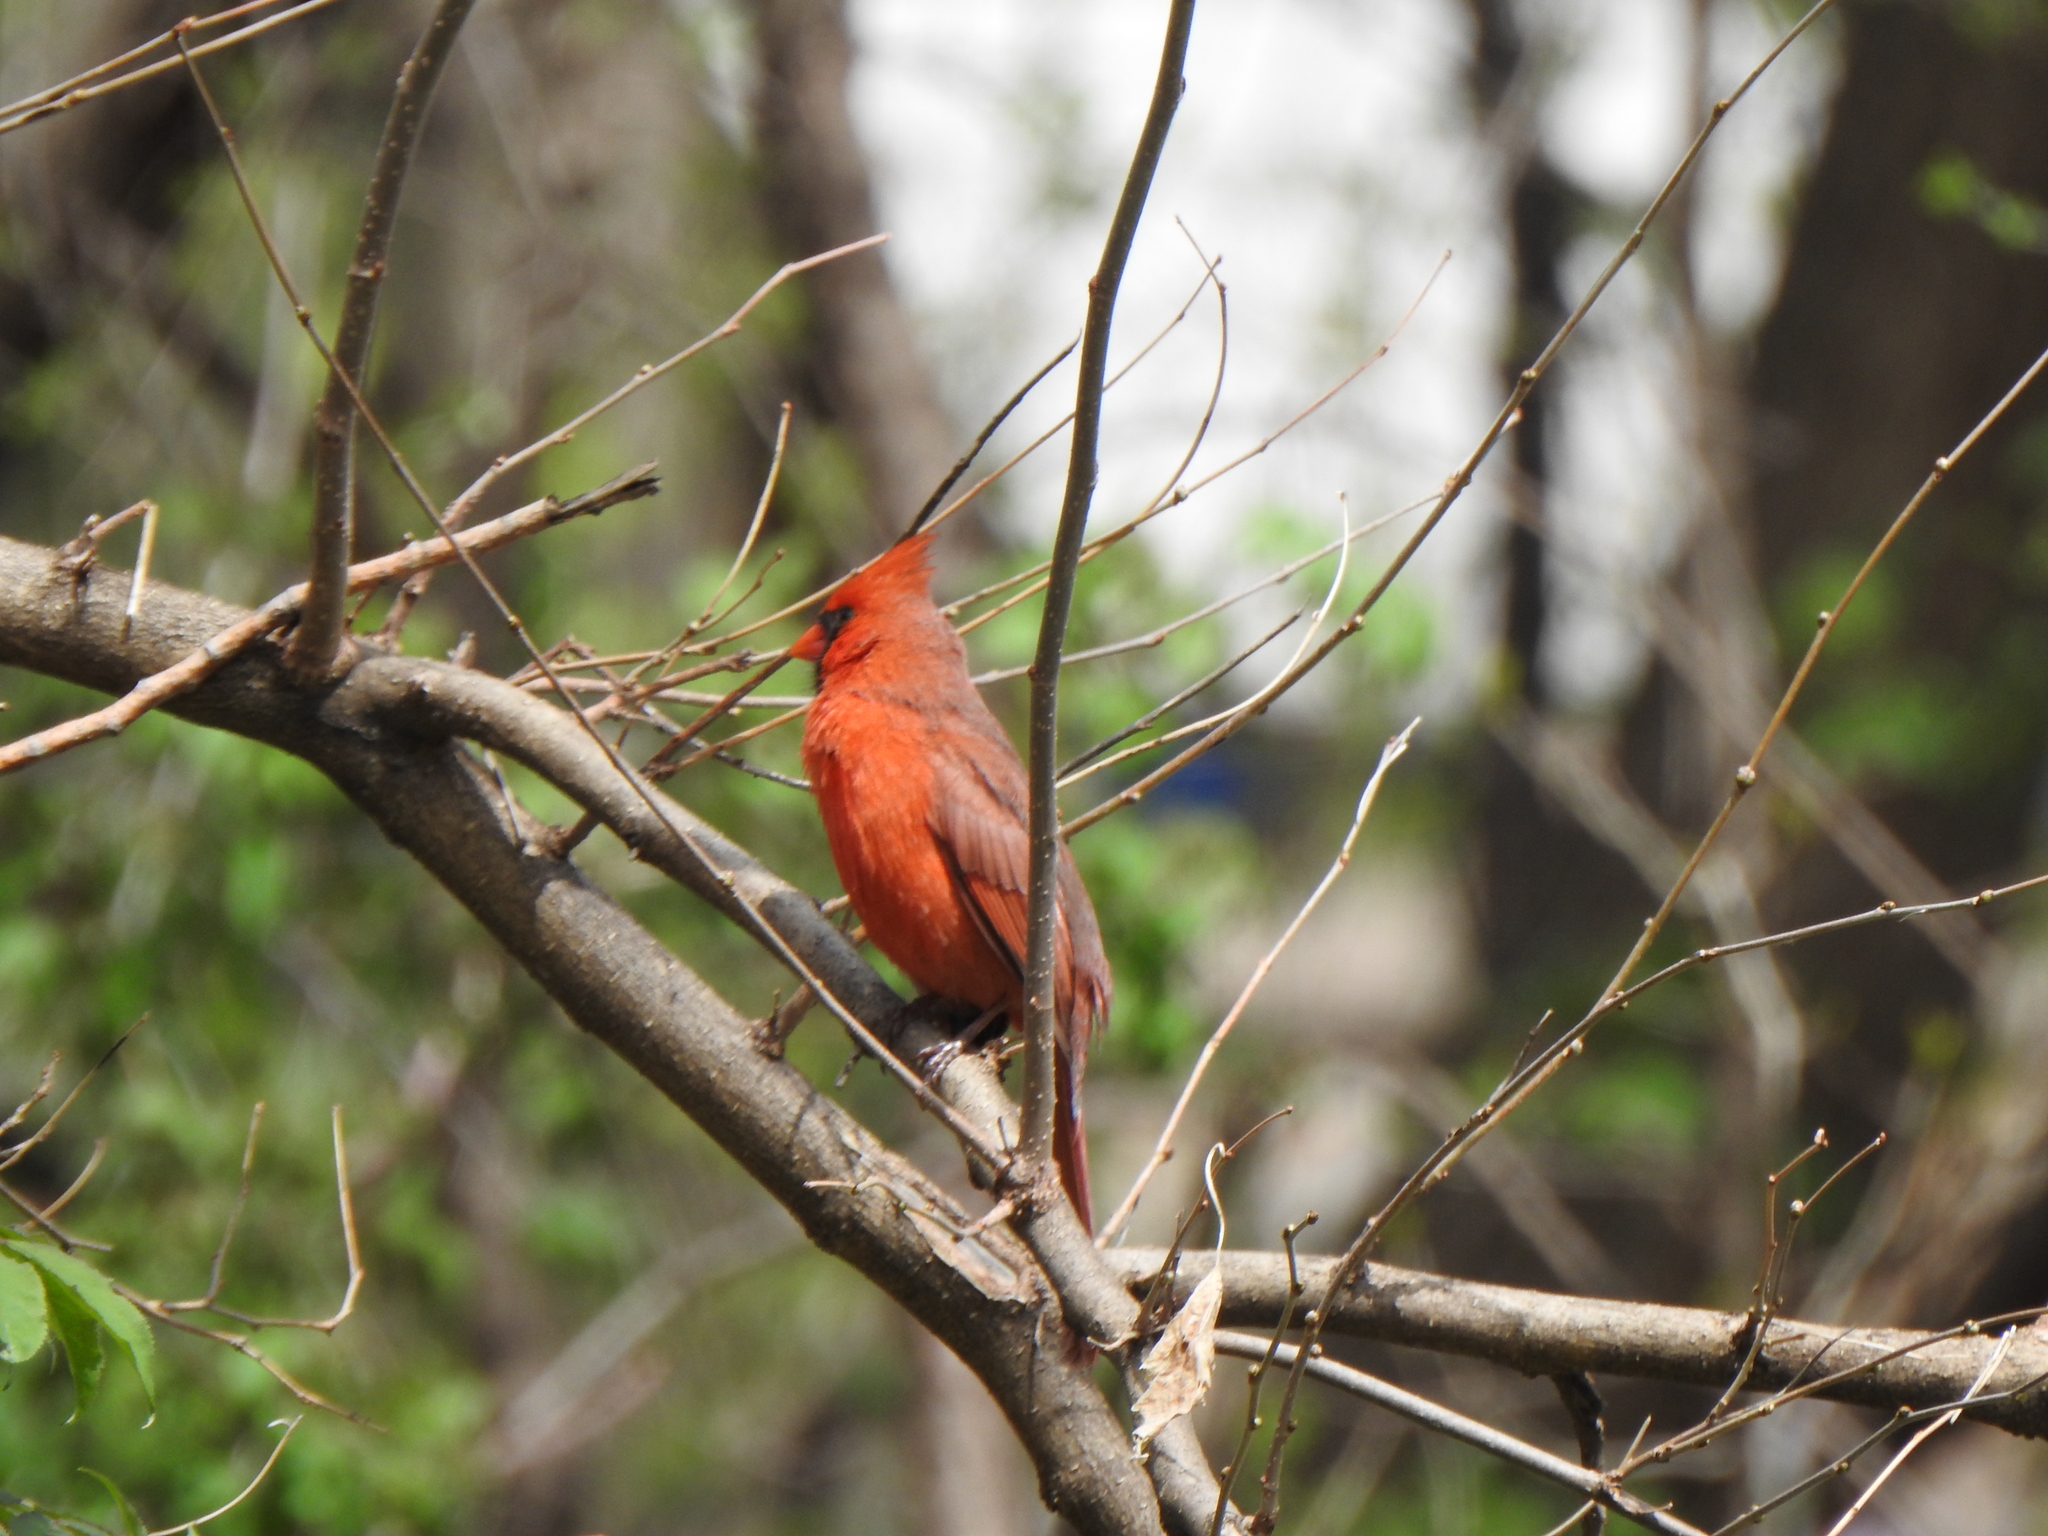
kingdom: Animalia
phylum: Chordata
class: Aves
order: Passeriformes
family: Cardinalidae
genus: Cardinalis
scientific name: Cardinalis cardinalis
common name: Northern cardinal
